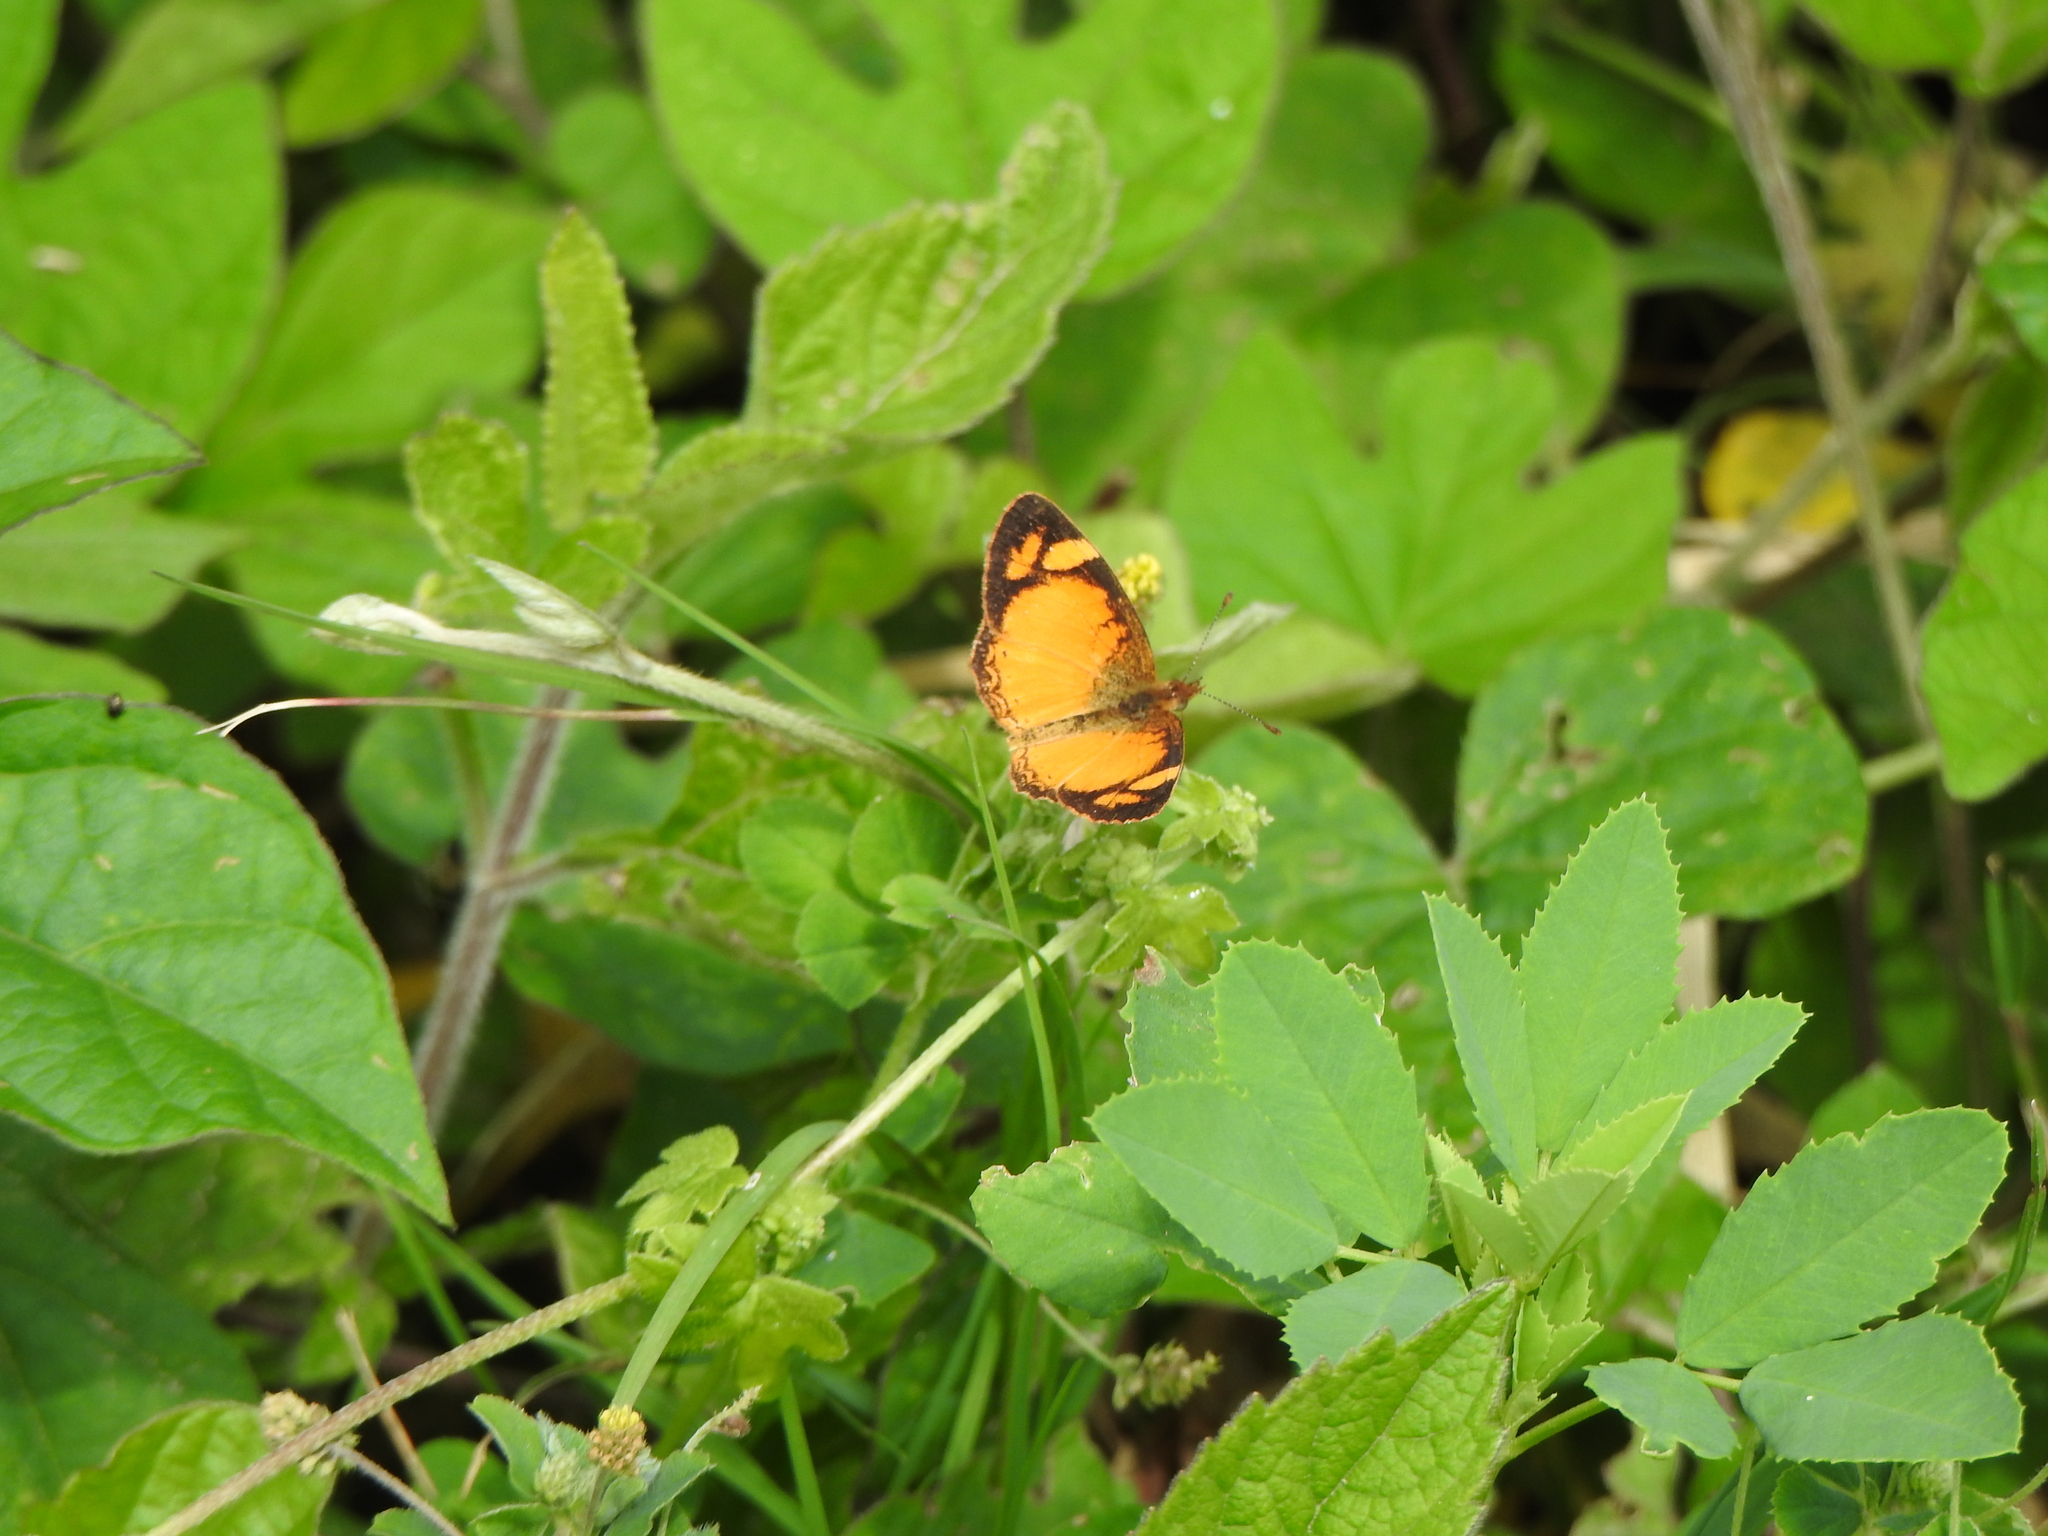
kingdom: Animalia
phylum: Arthropoda
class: Insecta
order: Lepidoptera
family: Nymphalidae
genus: Tegosa
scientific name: Tegosa claudina
